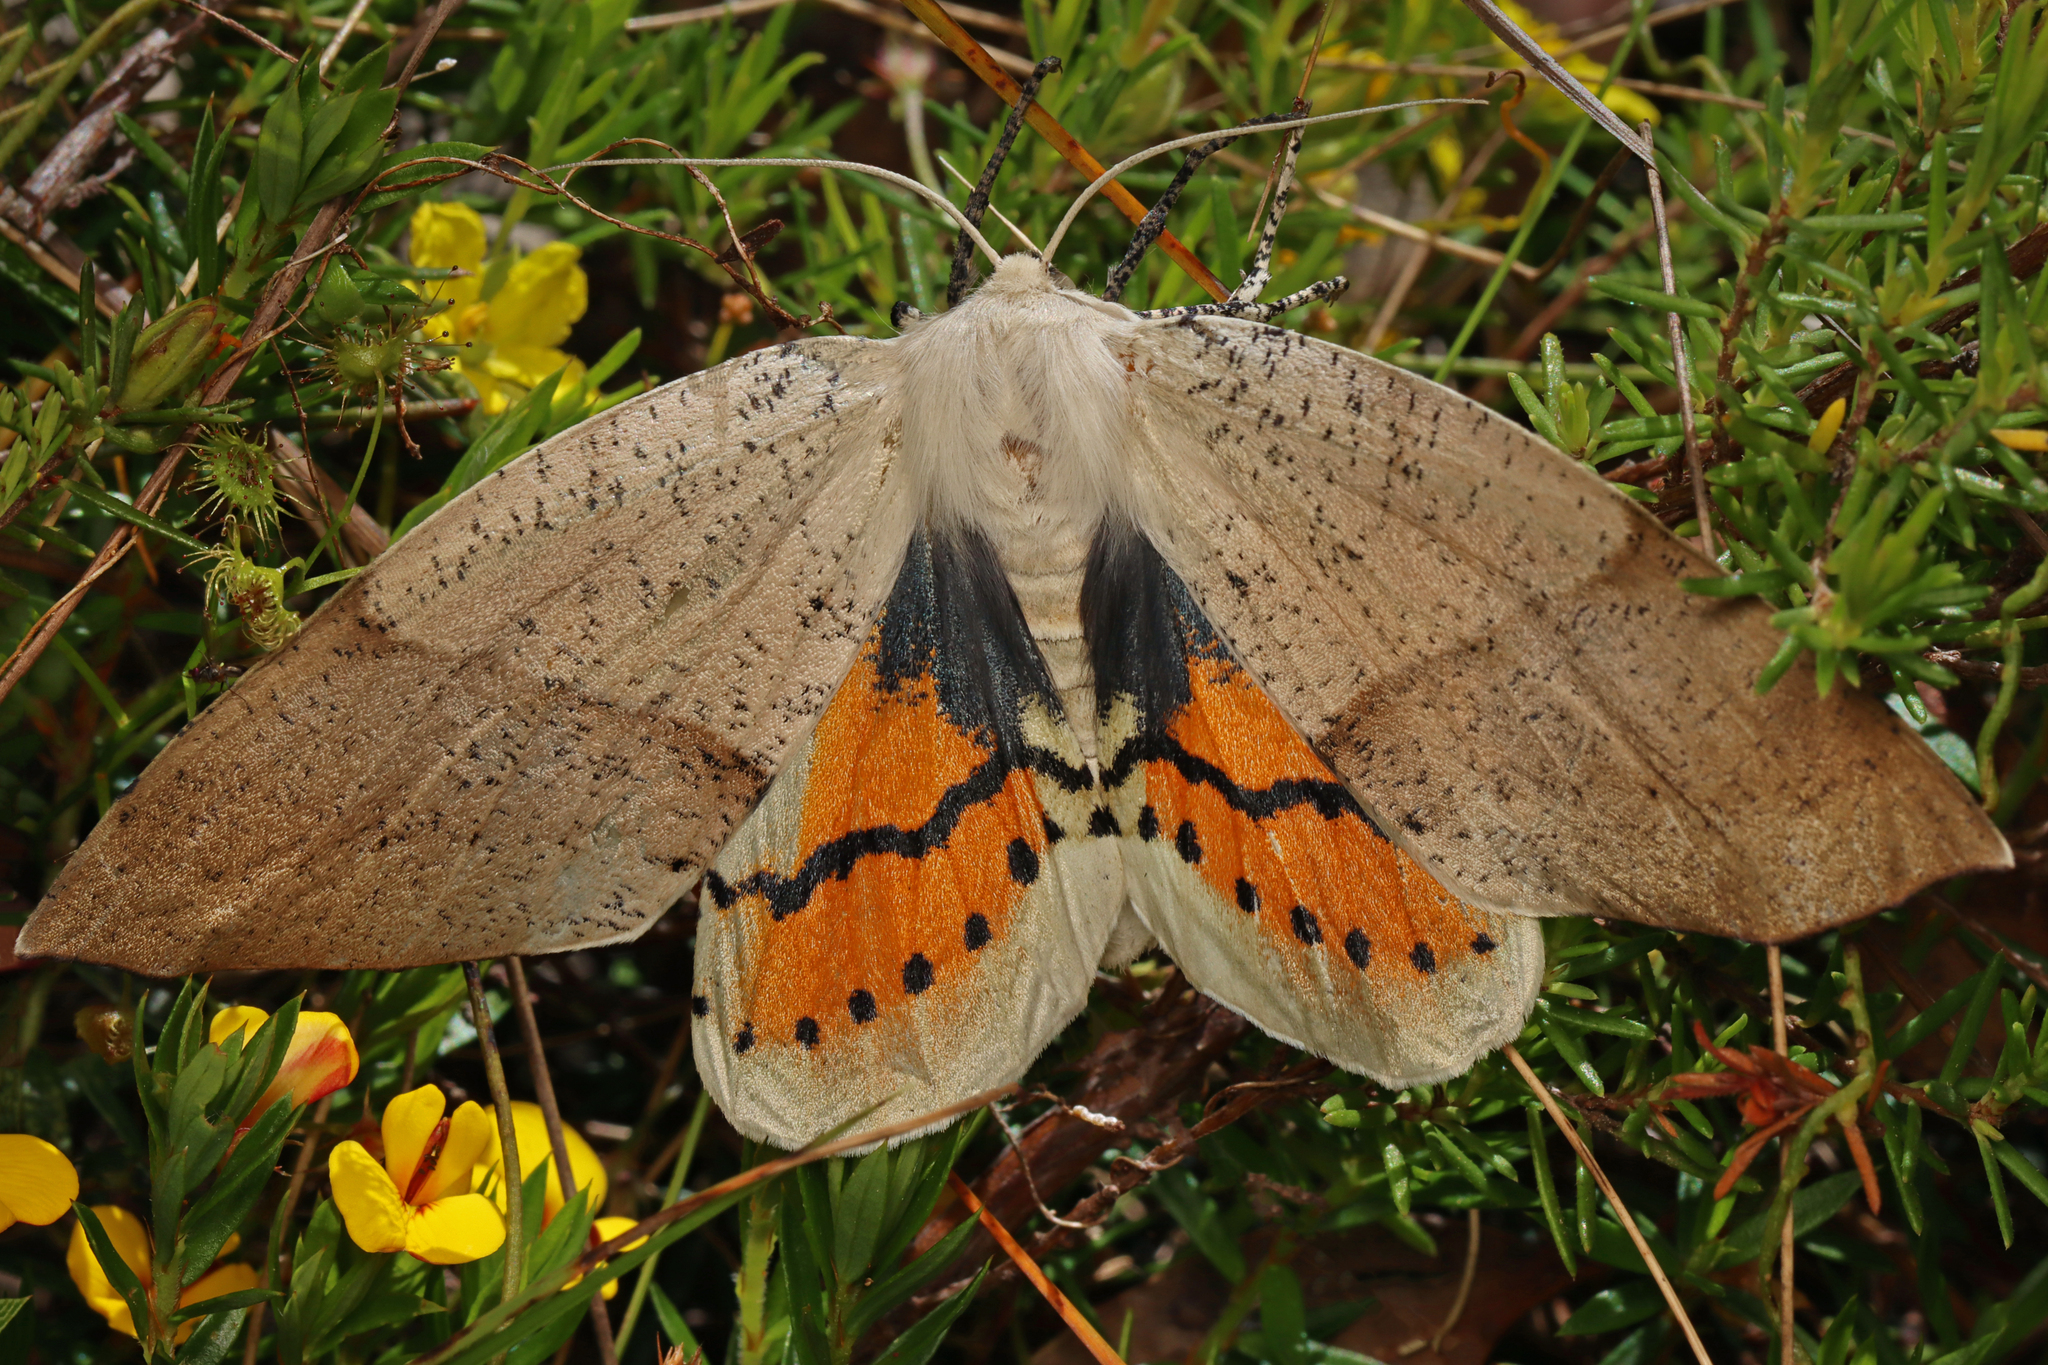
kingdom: Animalia
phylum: Arthropoda
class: Insecta
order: Lepidoptera
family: Geometridae
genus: Gastrophora
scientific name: Gastrophora henricaria
